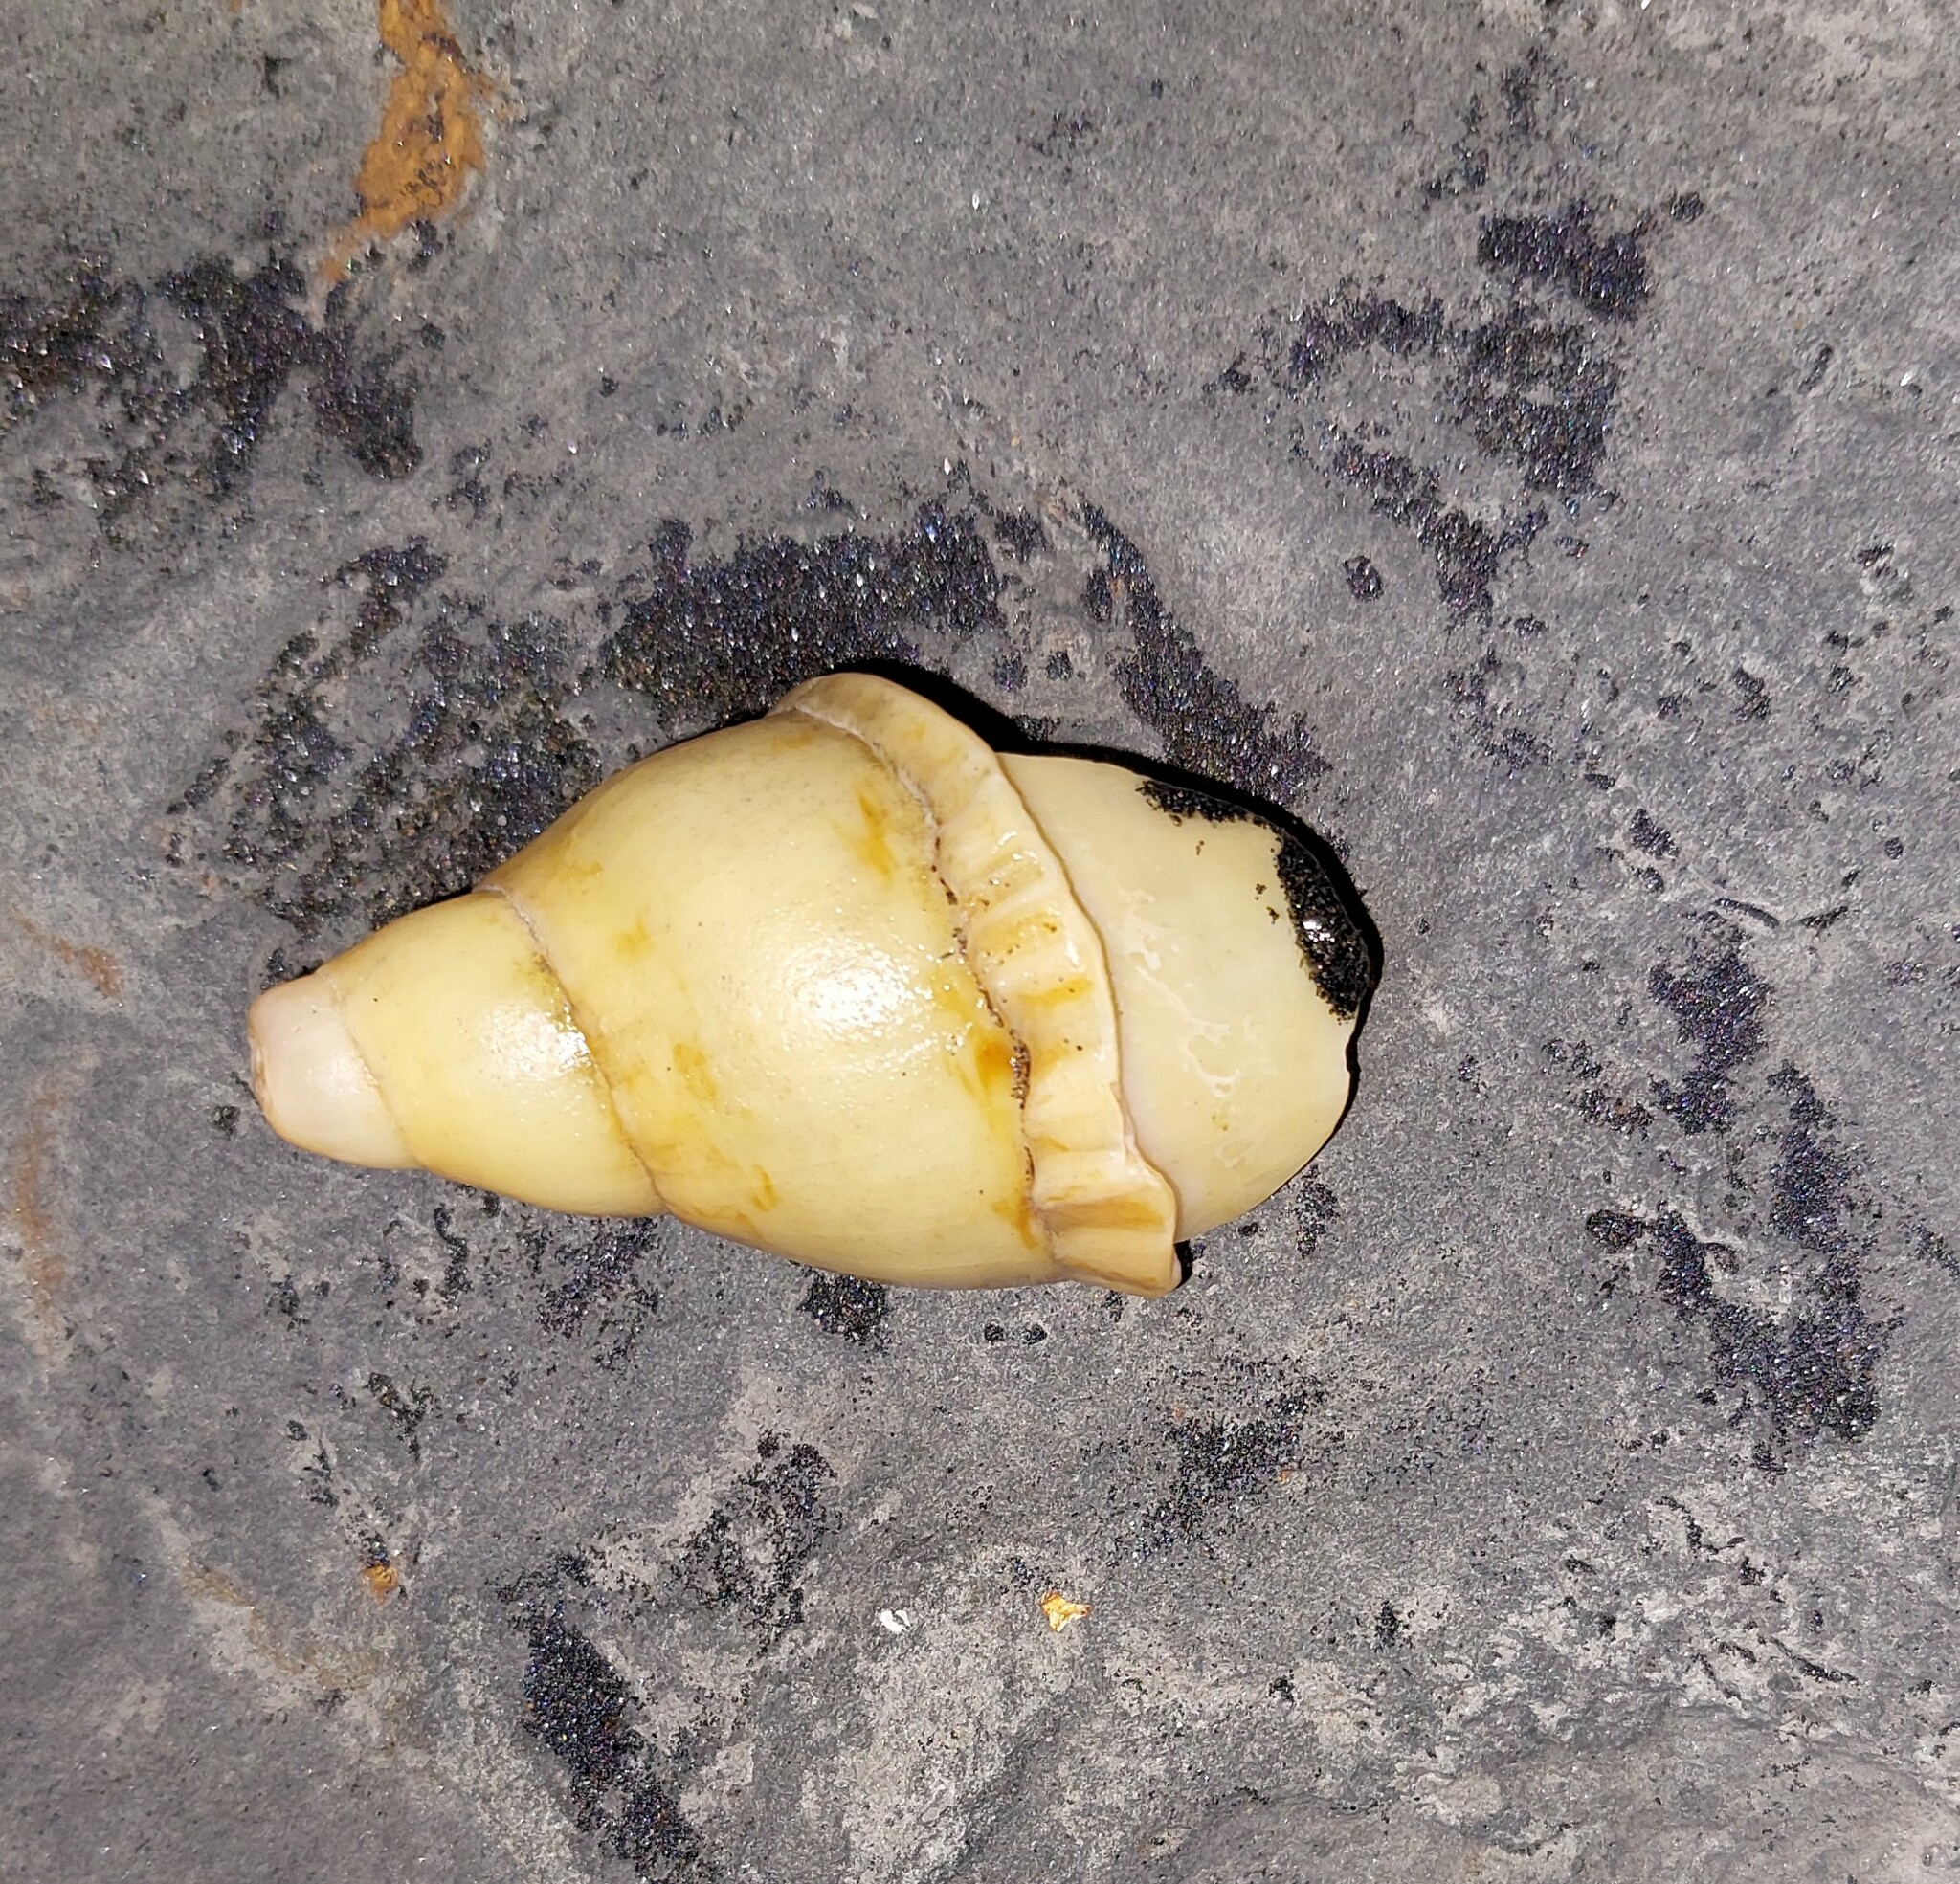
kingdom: Animalia
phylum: Mollusca
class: Gastropoda
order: Neogastropoda
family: Volutidae
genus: Alcithoe
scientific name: Alcithoe arabica
